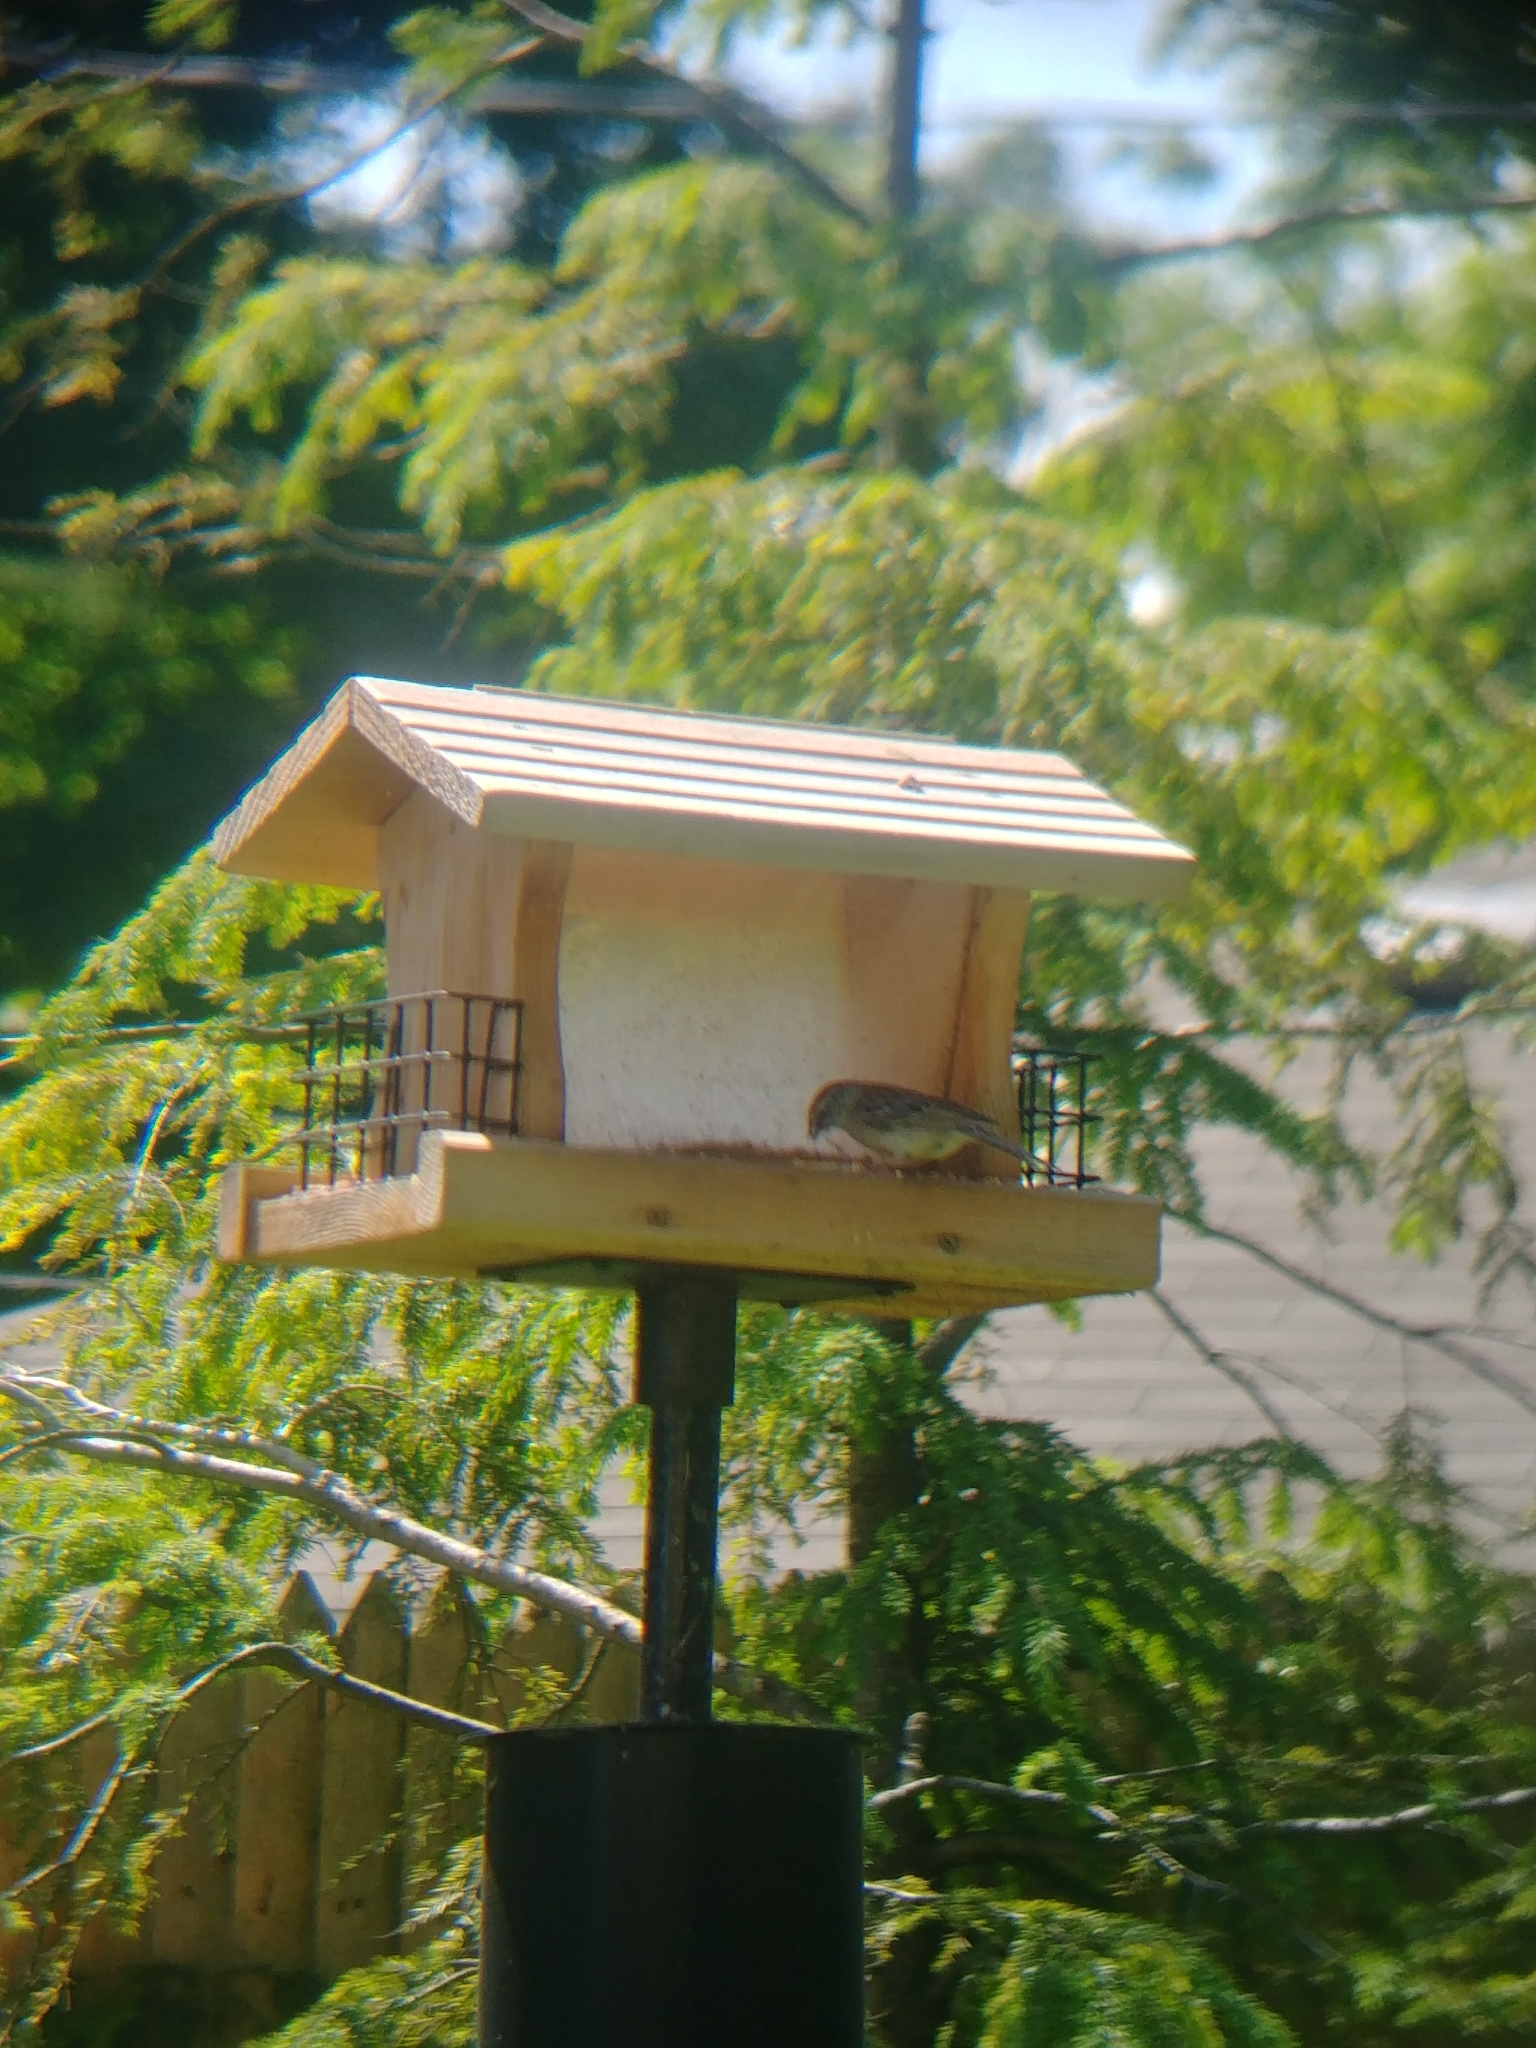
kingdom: Animalia
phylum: Chordata
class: Aves
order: Passeriformes
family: Passerellidae
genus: Spizella
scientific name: Spizella passerina
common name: Chipping sparrow
